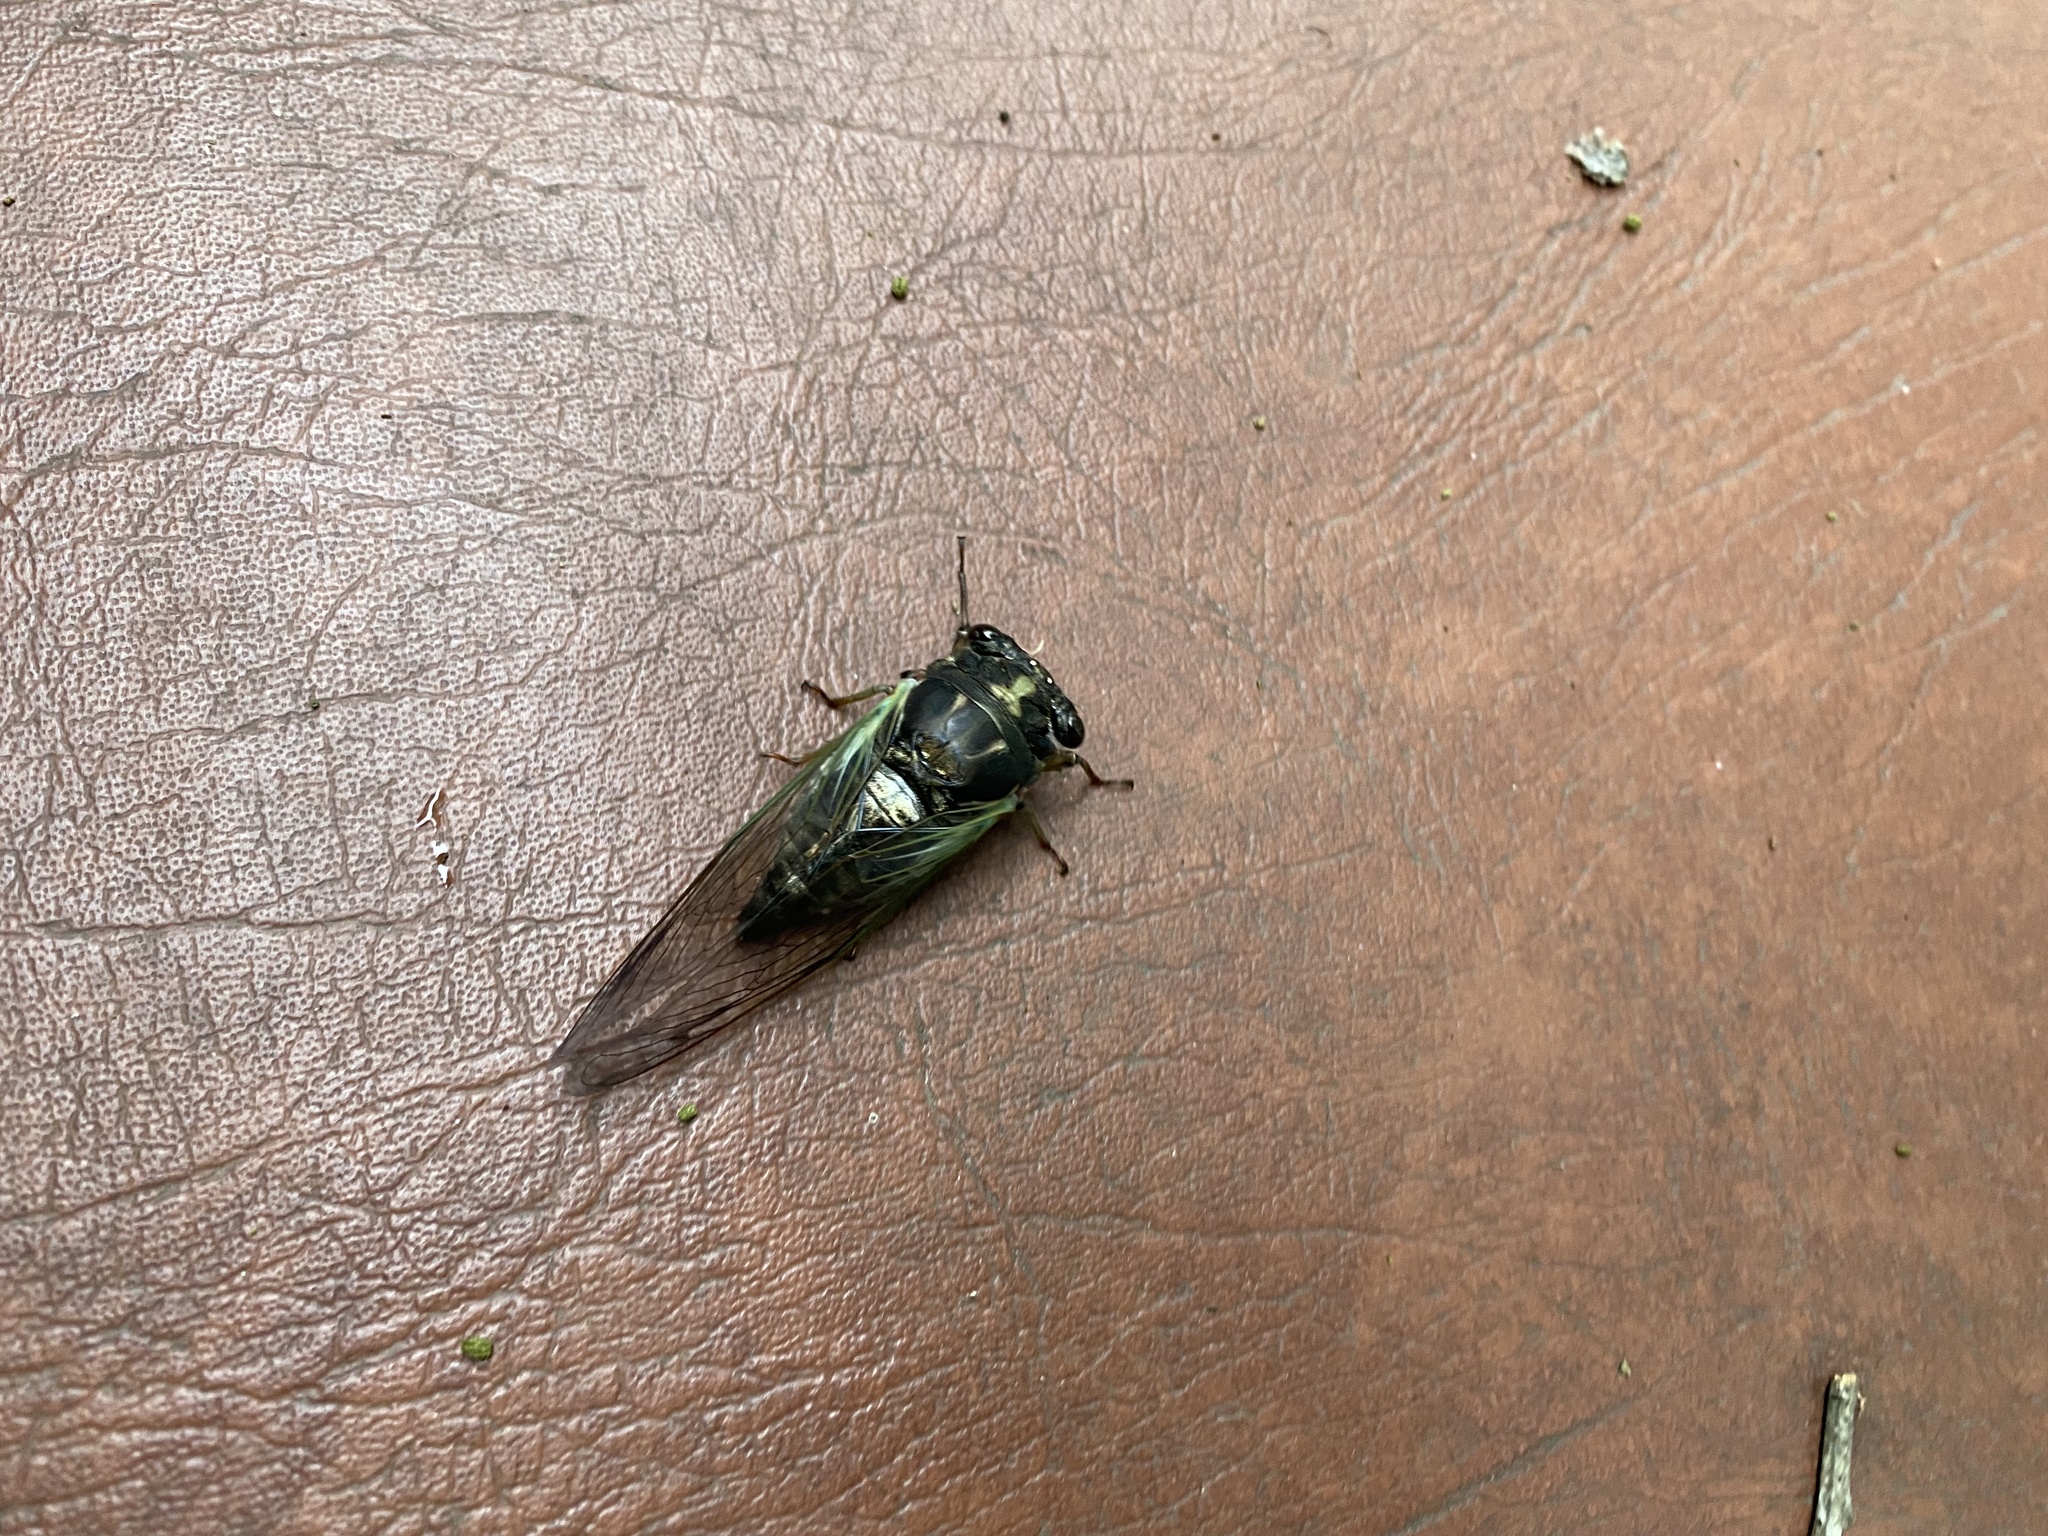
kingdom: Animalia
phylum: Arthropoda
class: Insecta
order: Hemiptera
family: Cicadidae
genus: Neotibicen
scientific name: Neotibicen lyricen
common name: Lyric cicada
